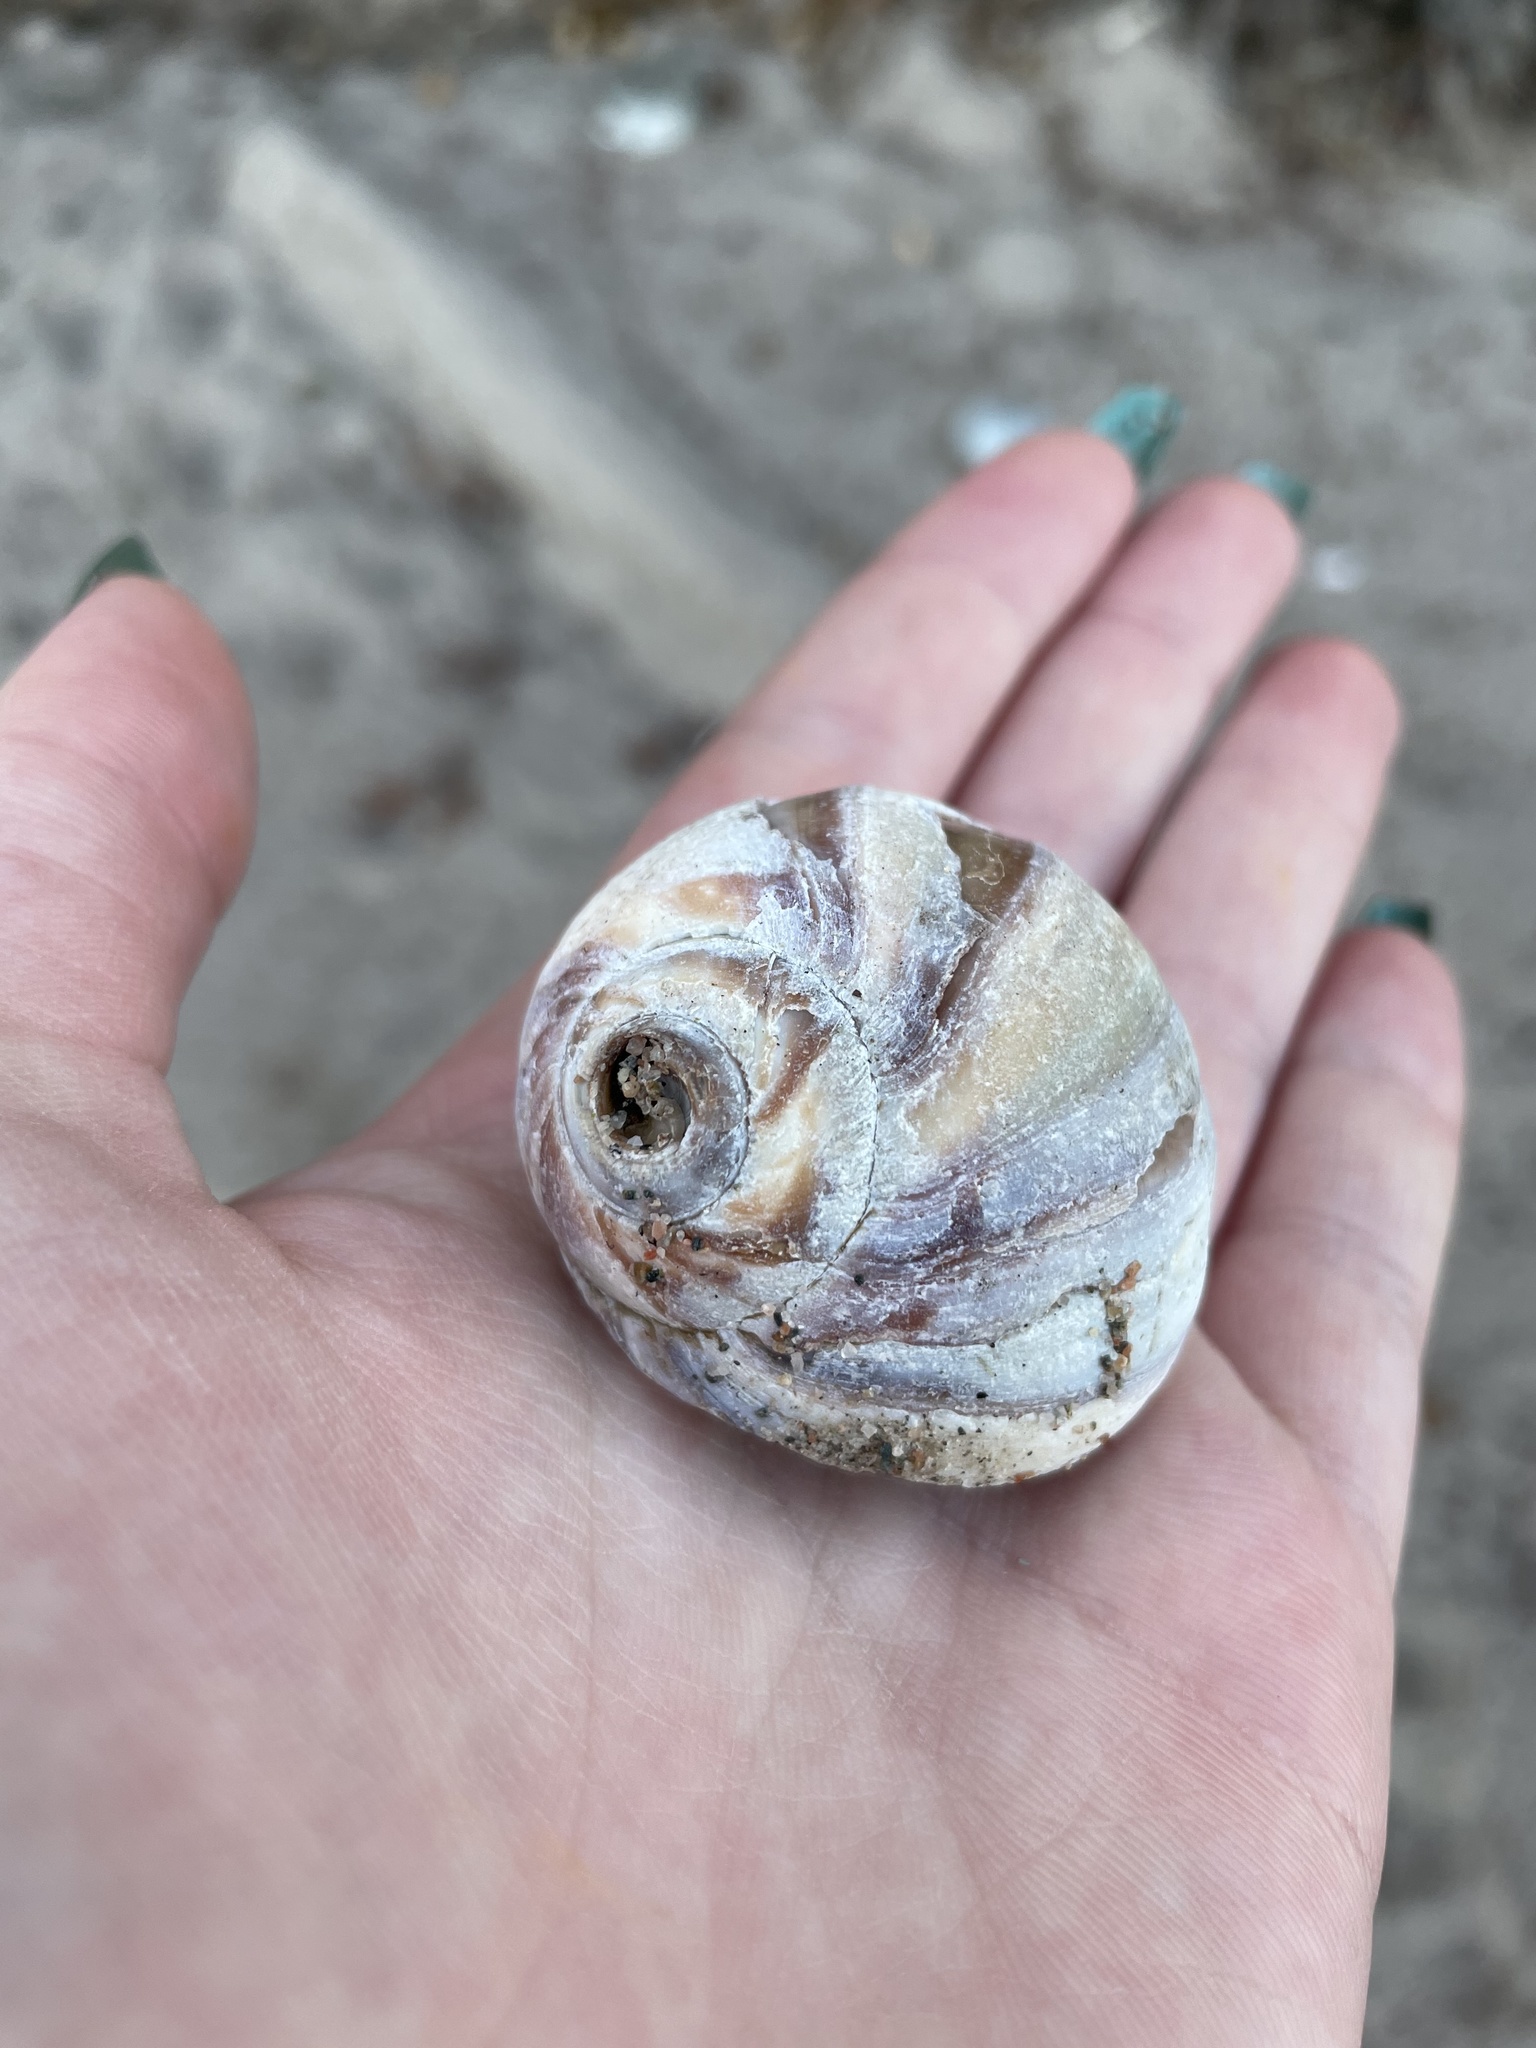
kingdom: Animalia
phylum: Mollusca
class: Gastropoda
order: Littorinimorpha
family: Naticidae
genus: Euspira
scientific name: Euspira heros
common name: Common northern moonsnail
